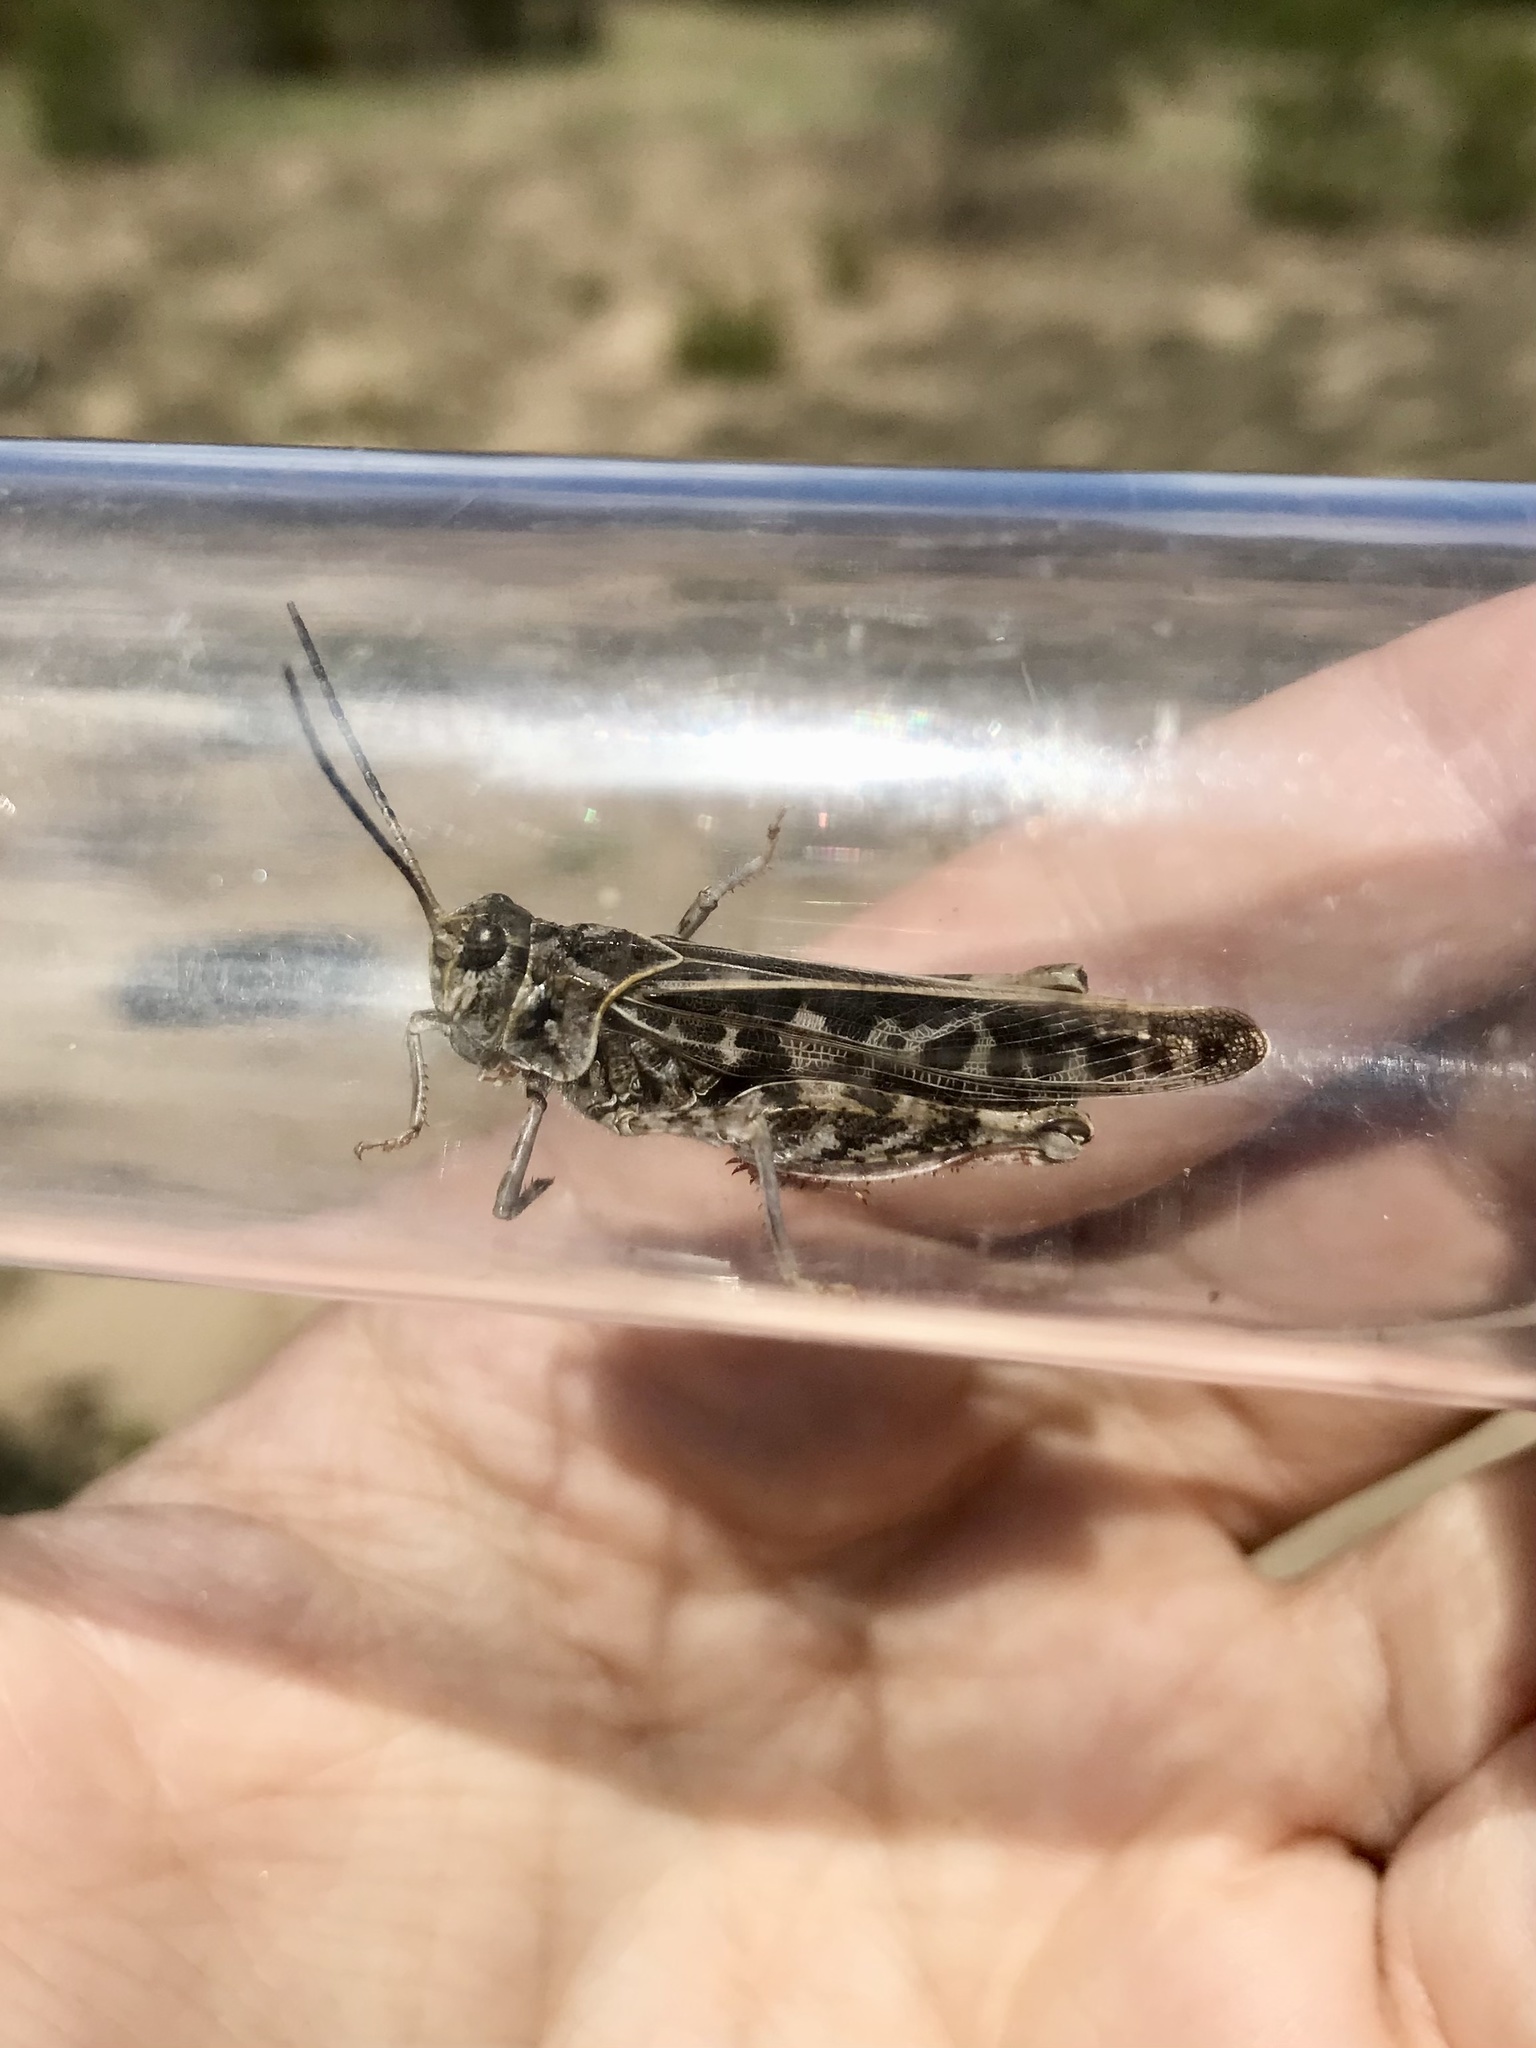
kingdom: Animalia
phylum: Arthropoda
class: Insecta
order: Orthoptera
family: Acrididae
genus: Xanthippus
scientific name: Xanthippus corallipes
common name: Redshanked grasshopper
